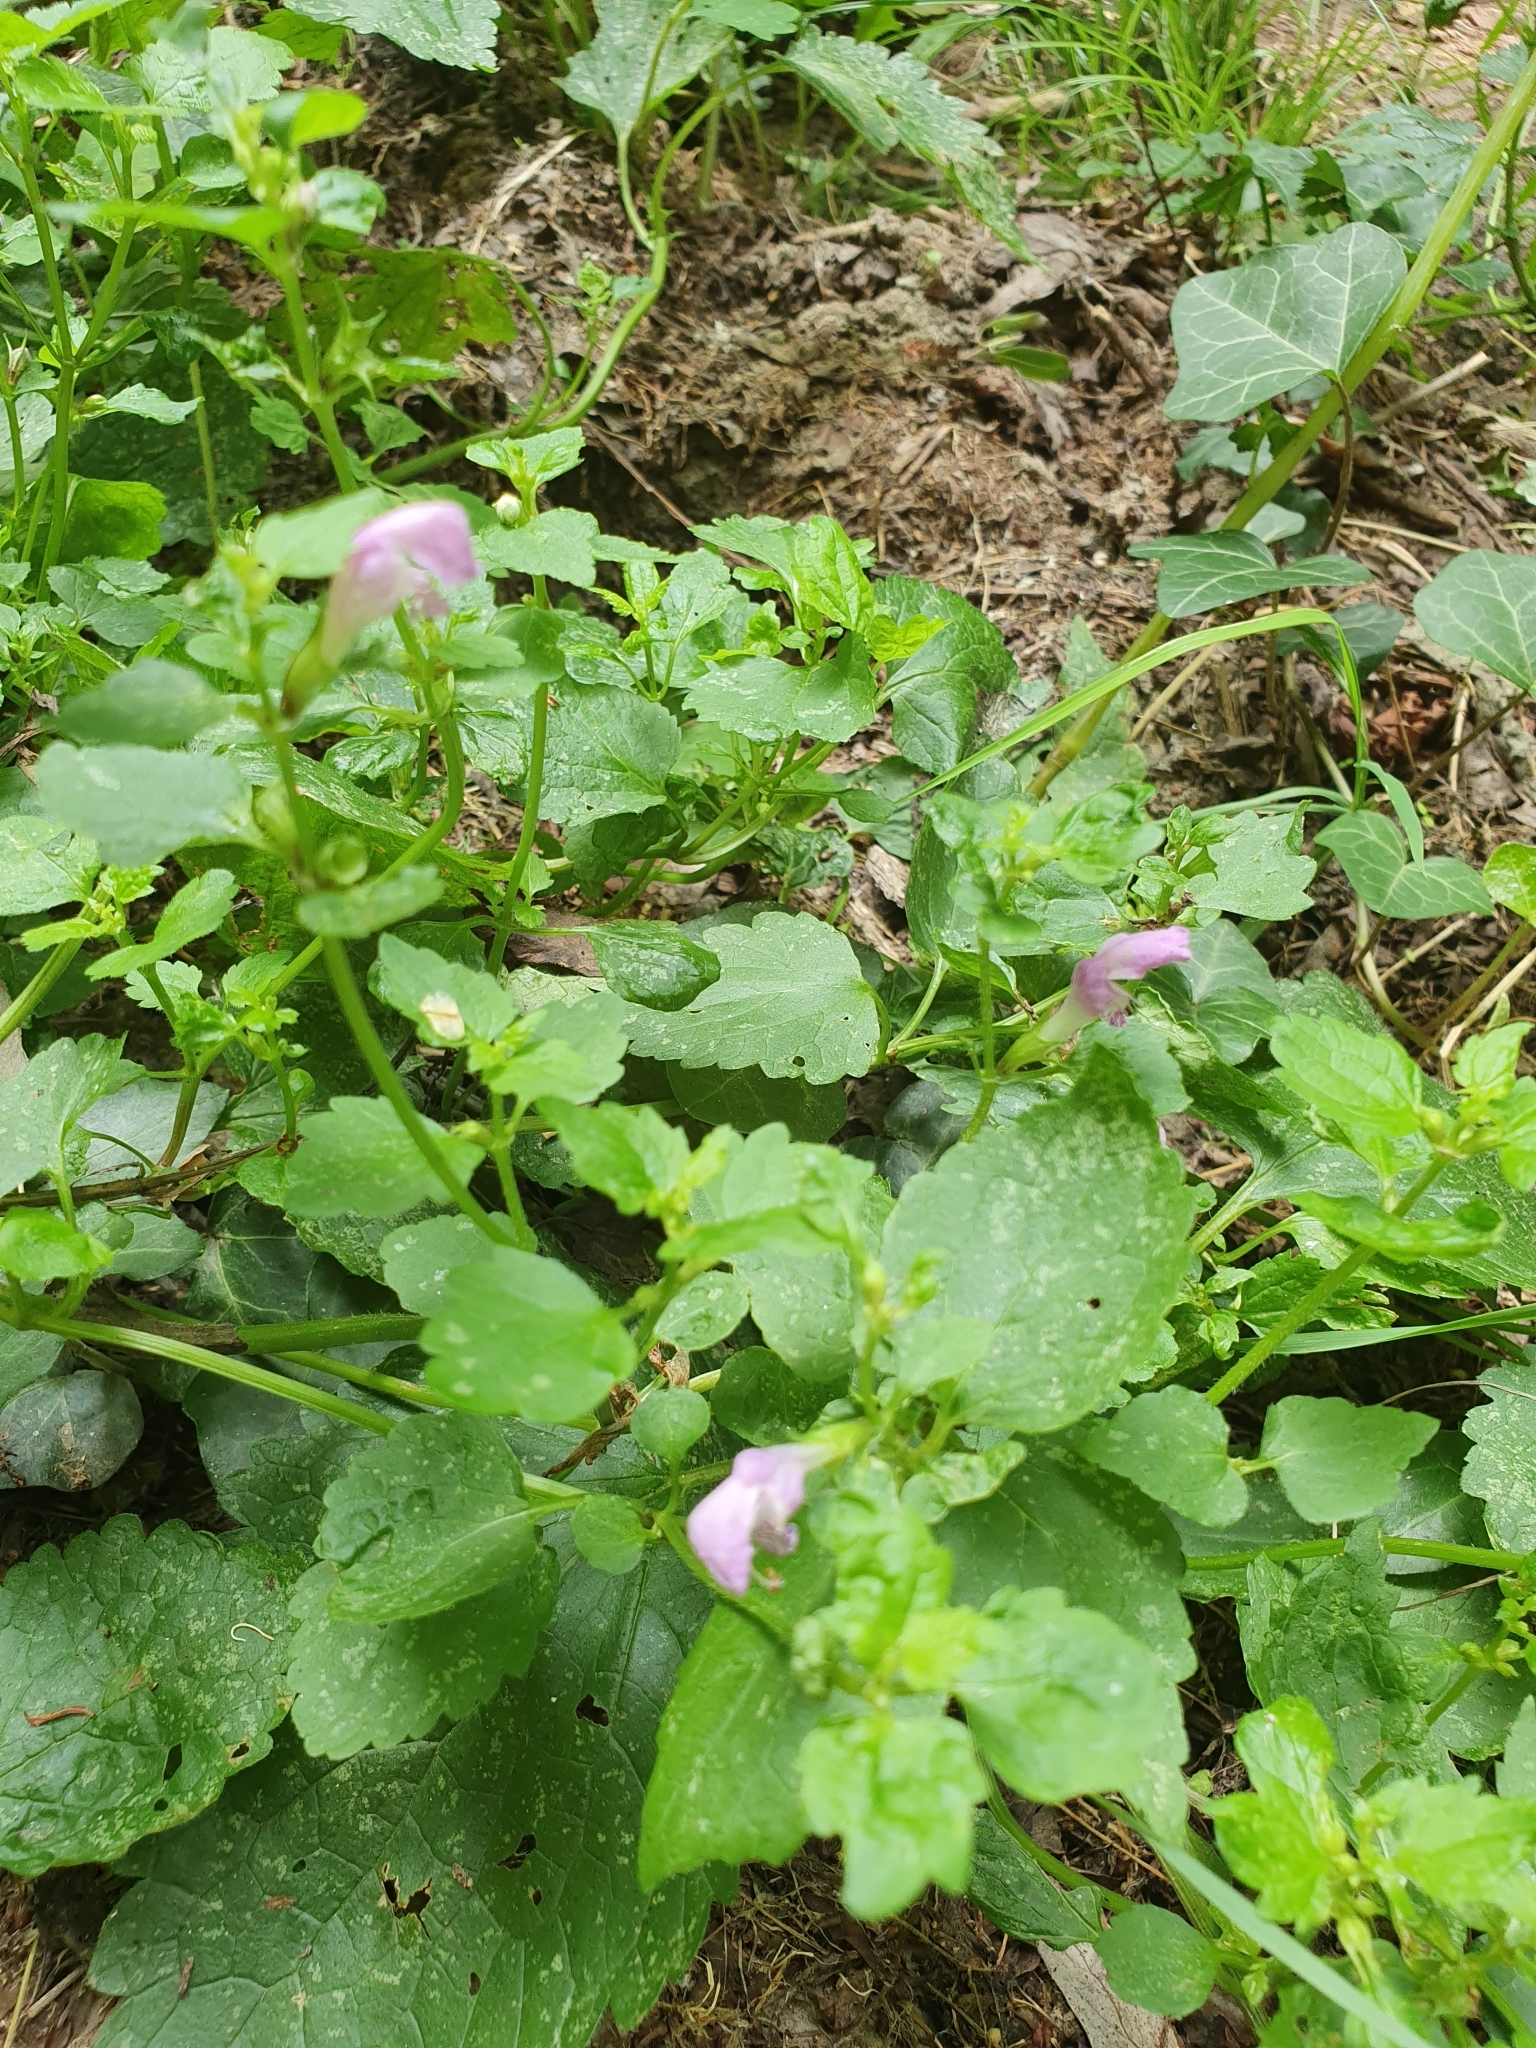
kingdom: Plantae
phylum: Tracheophyta
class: Magnoliopsida
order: Lamiales
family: Lamiaceae
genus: Lamium
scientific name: Lamium maculatum
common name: Spotted dead-nettle
